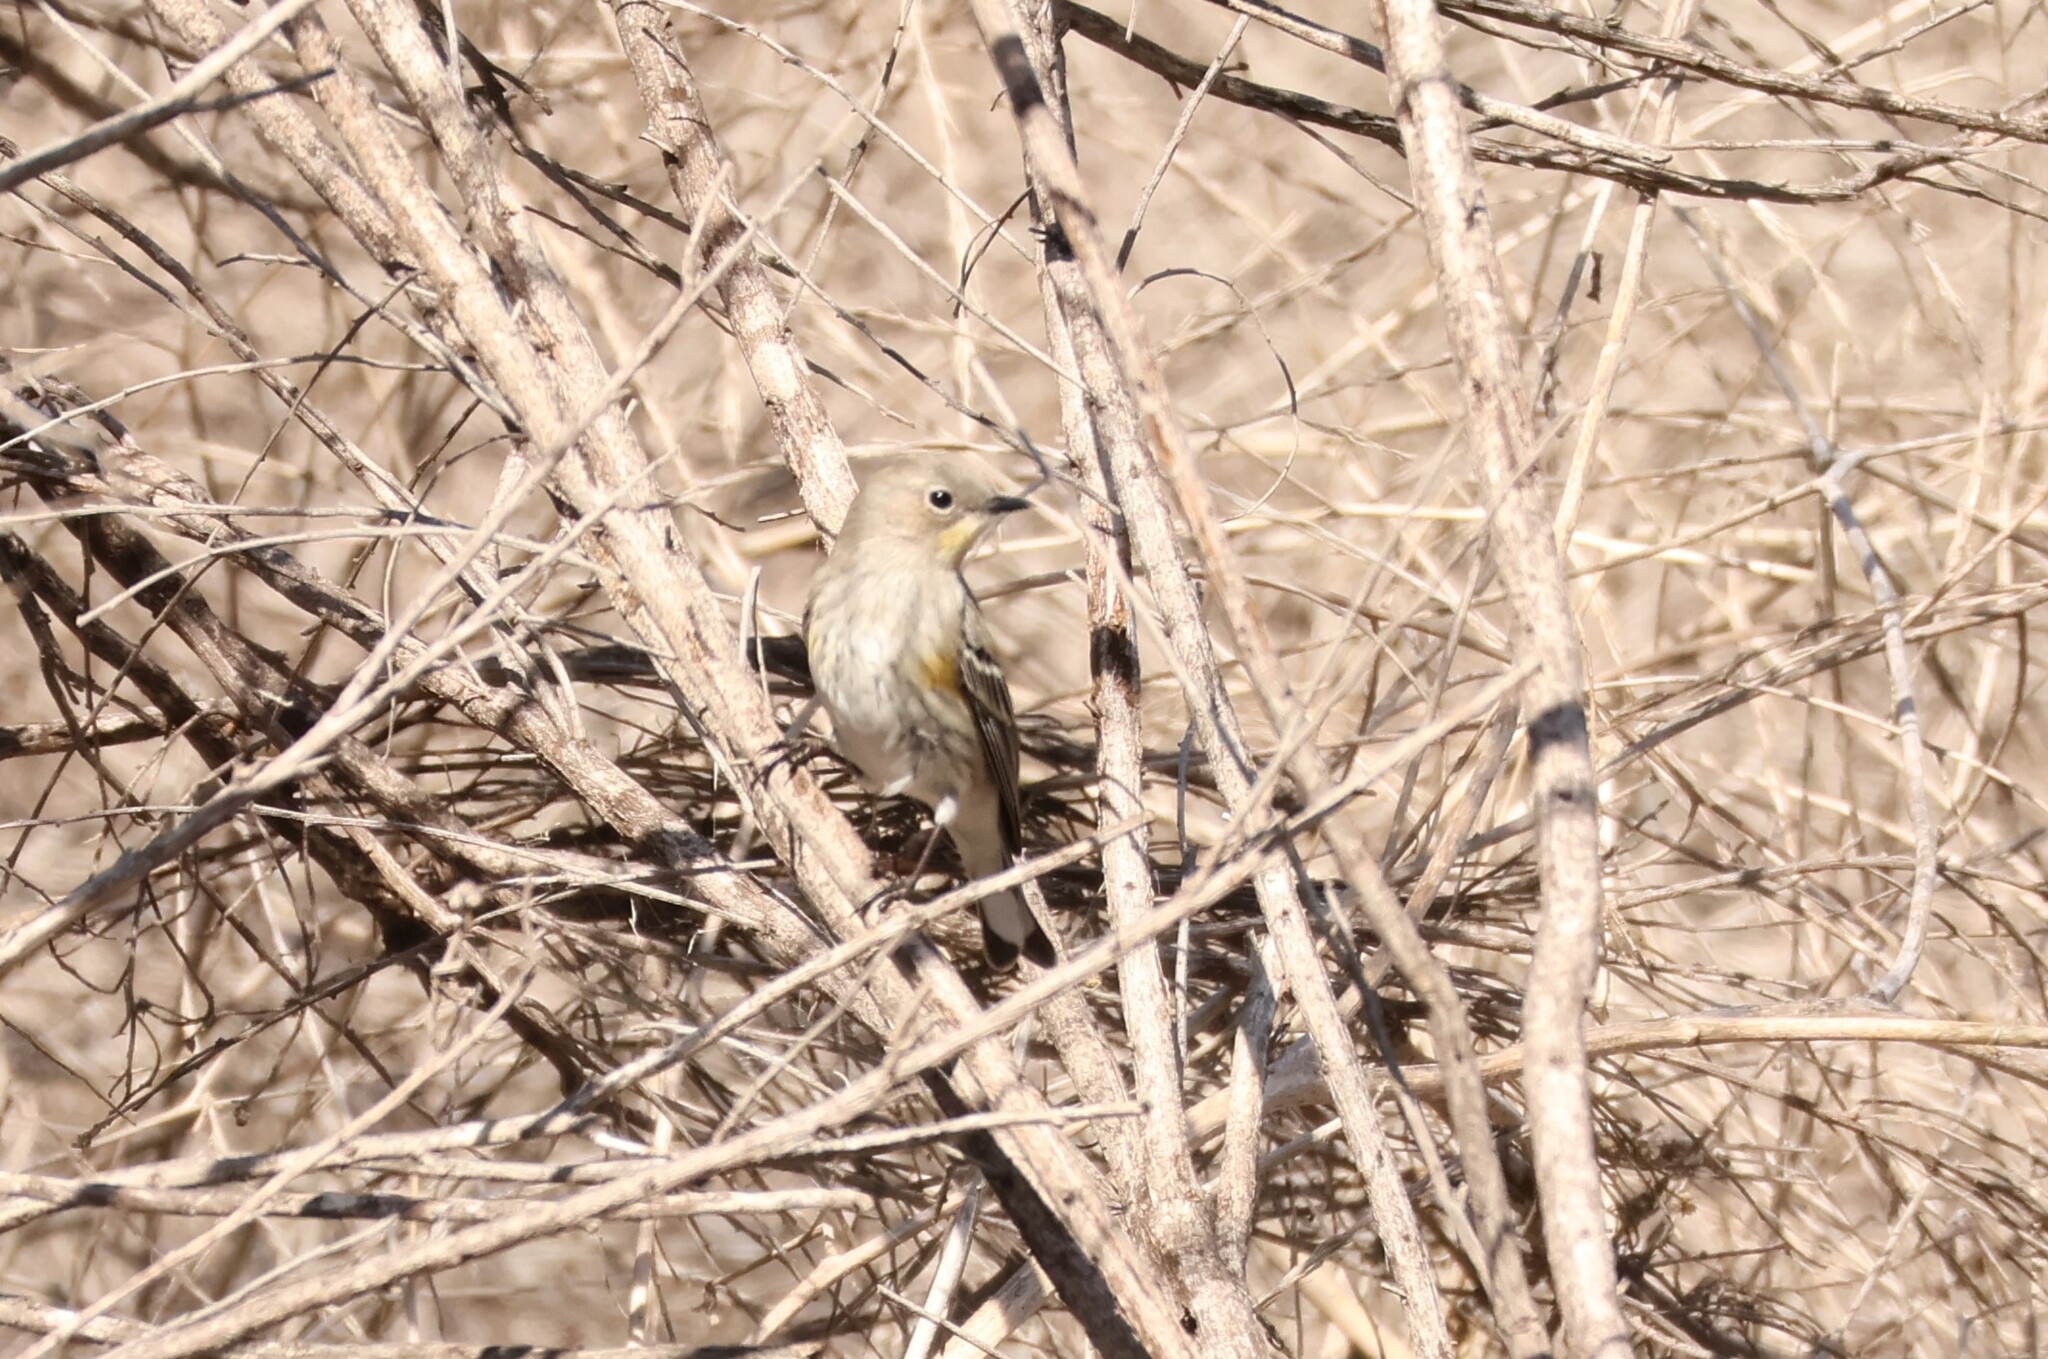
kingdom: Animalia
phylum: Chordata
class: Aves
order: Passeriformes
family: Parulidae
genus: Setophaga
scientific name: Setophaga auduboni
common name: Audubon's warbler
